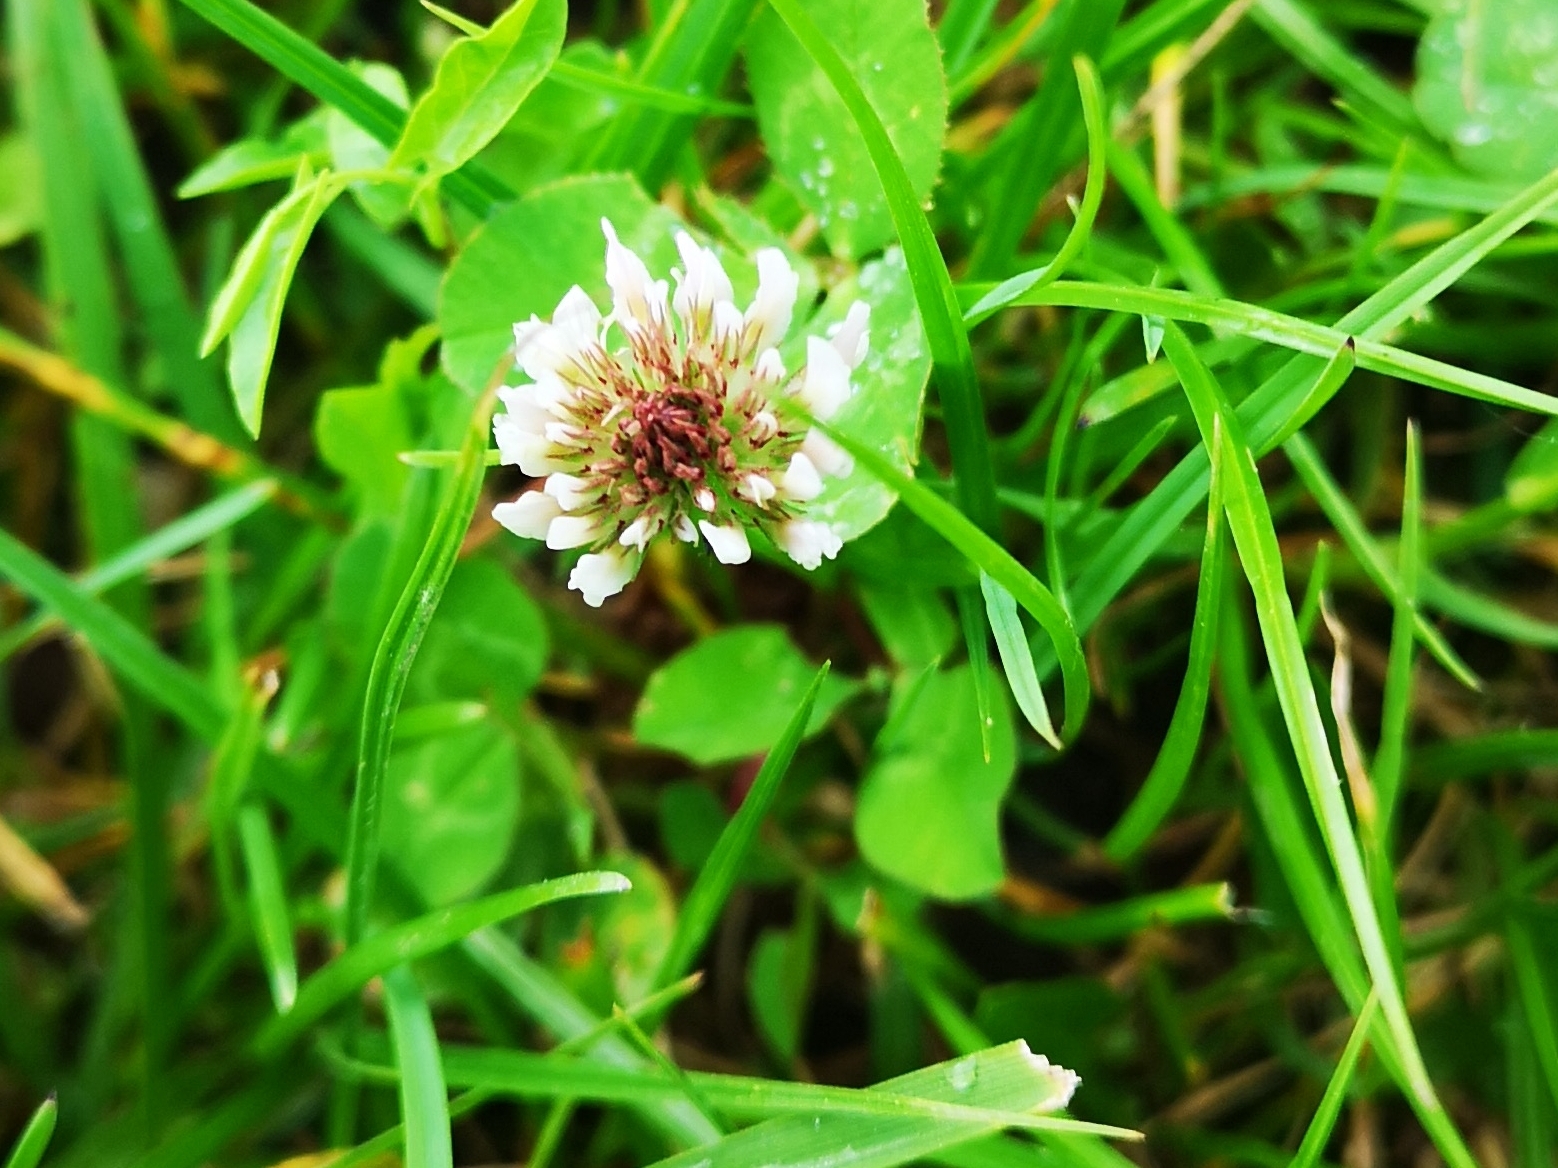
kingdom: Plantae
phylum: Tracheophyta
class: Magnoliopsida
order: Fabales
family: Fabaceae
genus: Trifolium
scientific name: Trifolium repens
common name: White clover
